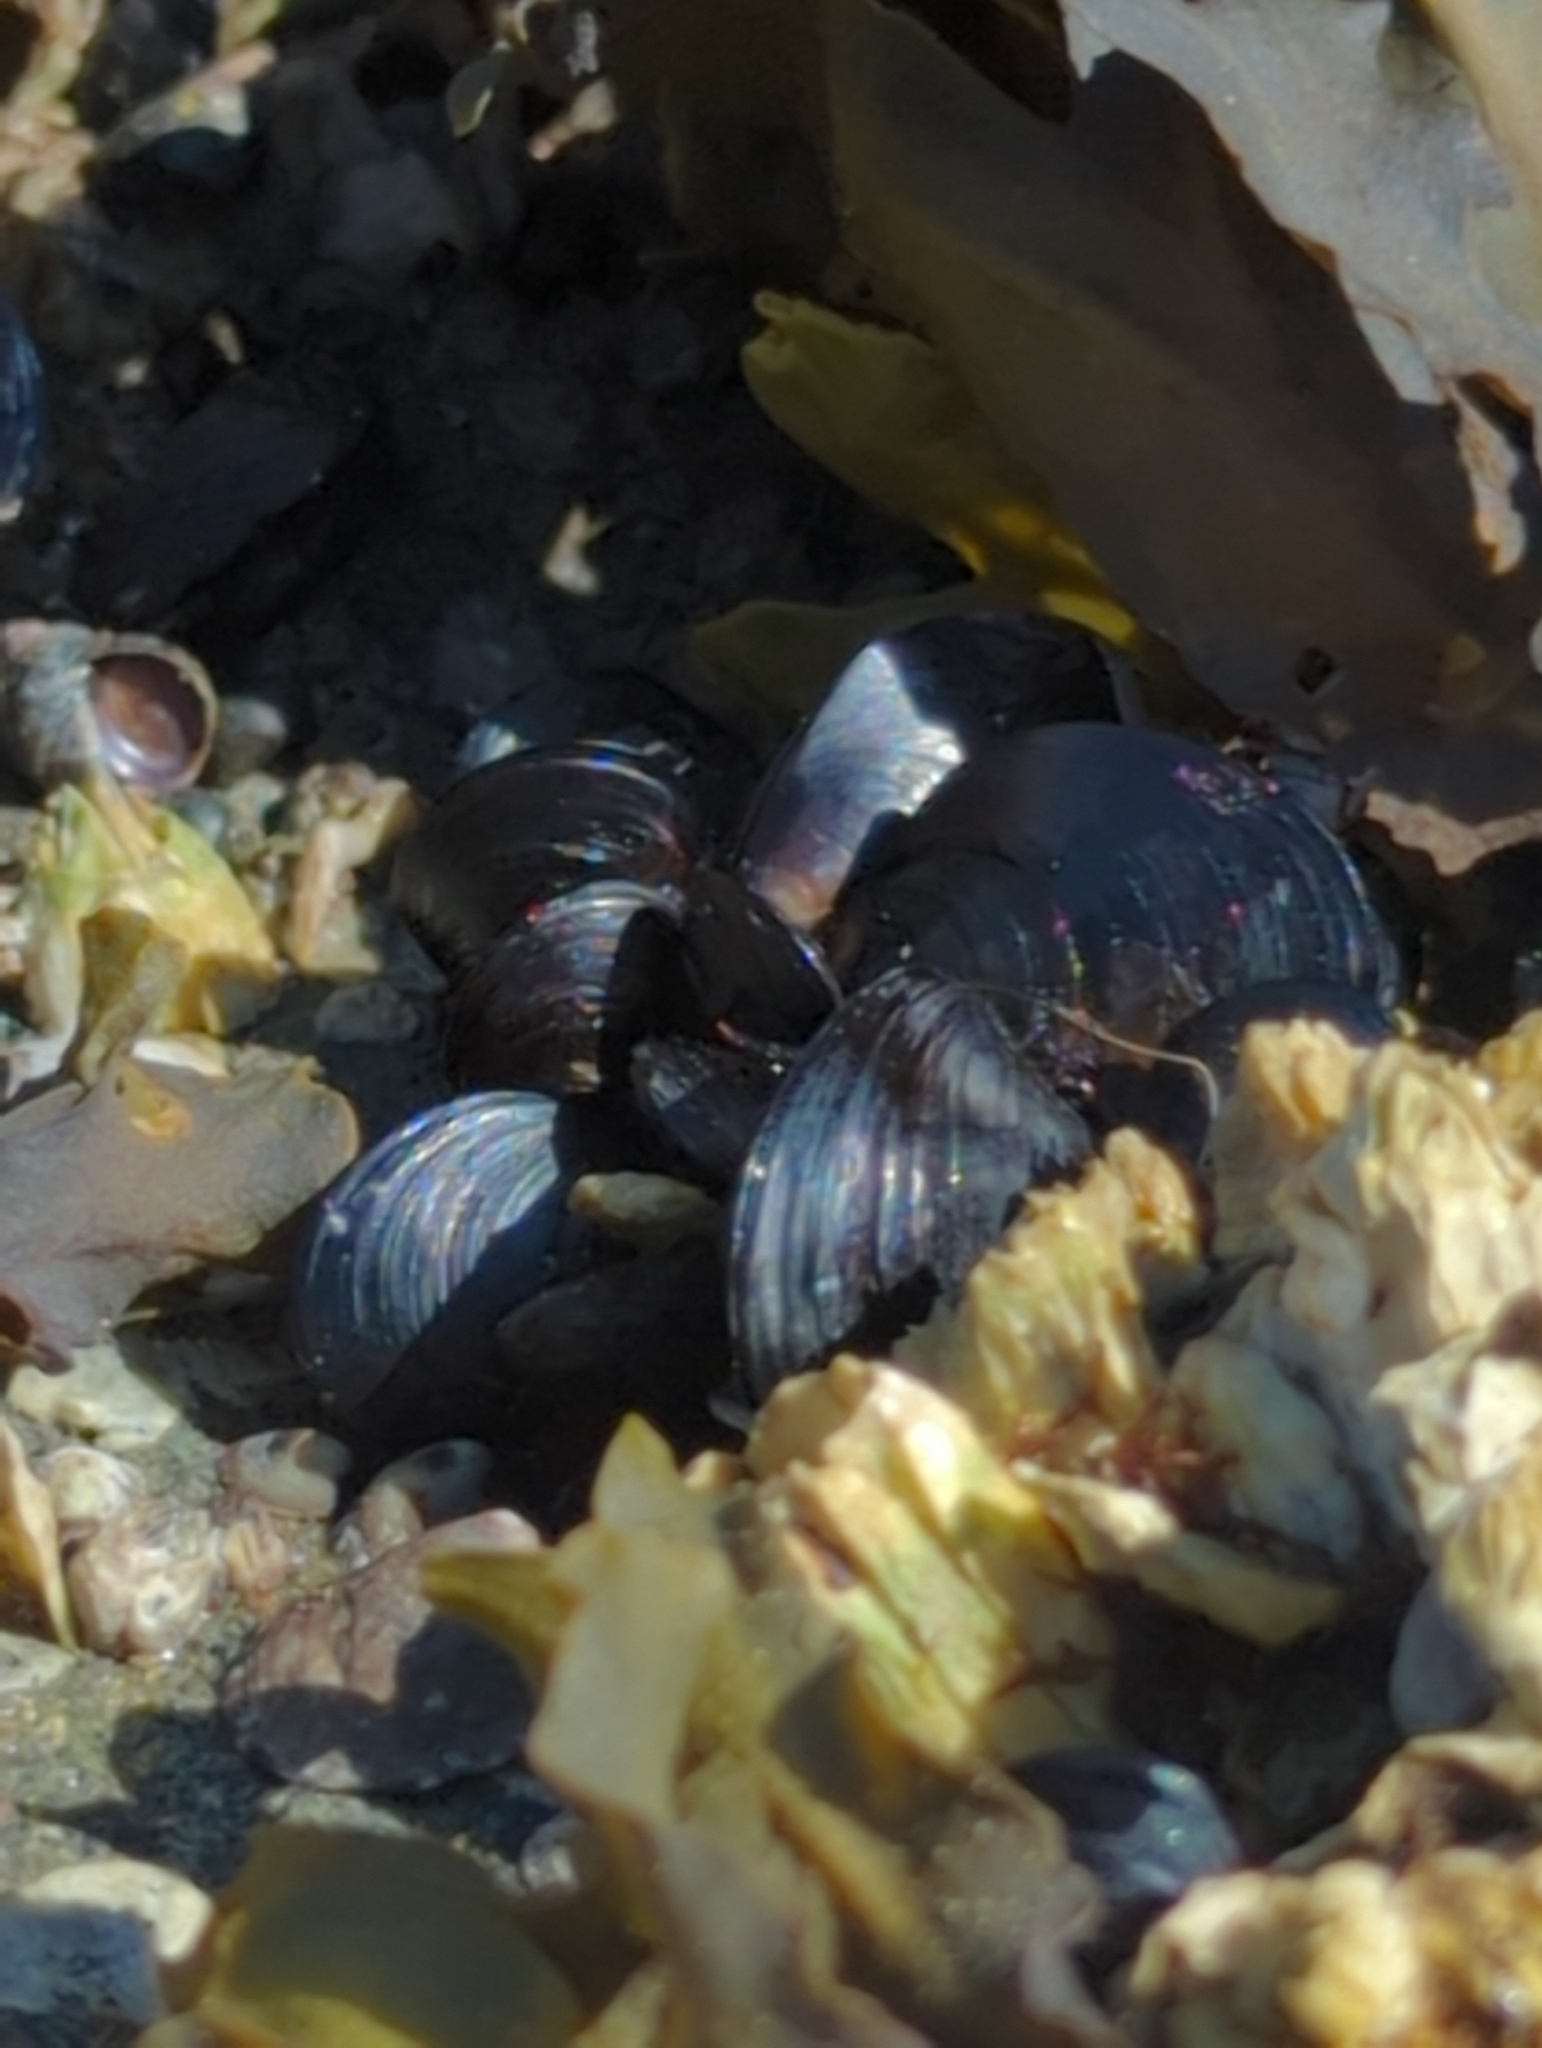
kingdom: Animalia
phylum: Mollusca
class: Bivalvia
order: Mytilida
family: Mytilidae
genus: Mytilus
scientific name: Mytilus trossulus
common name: Northern blue mussel
